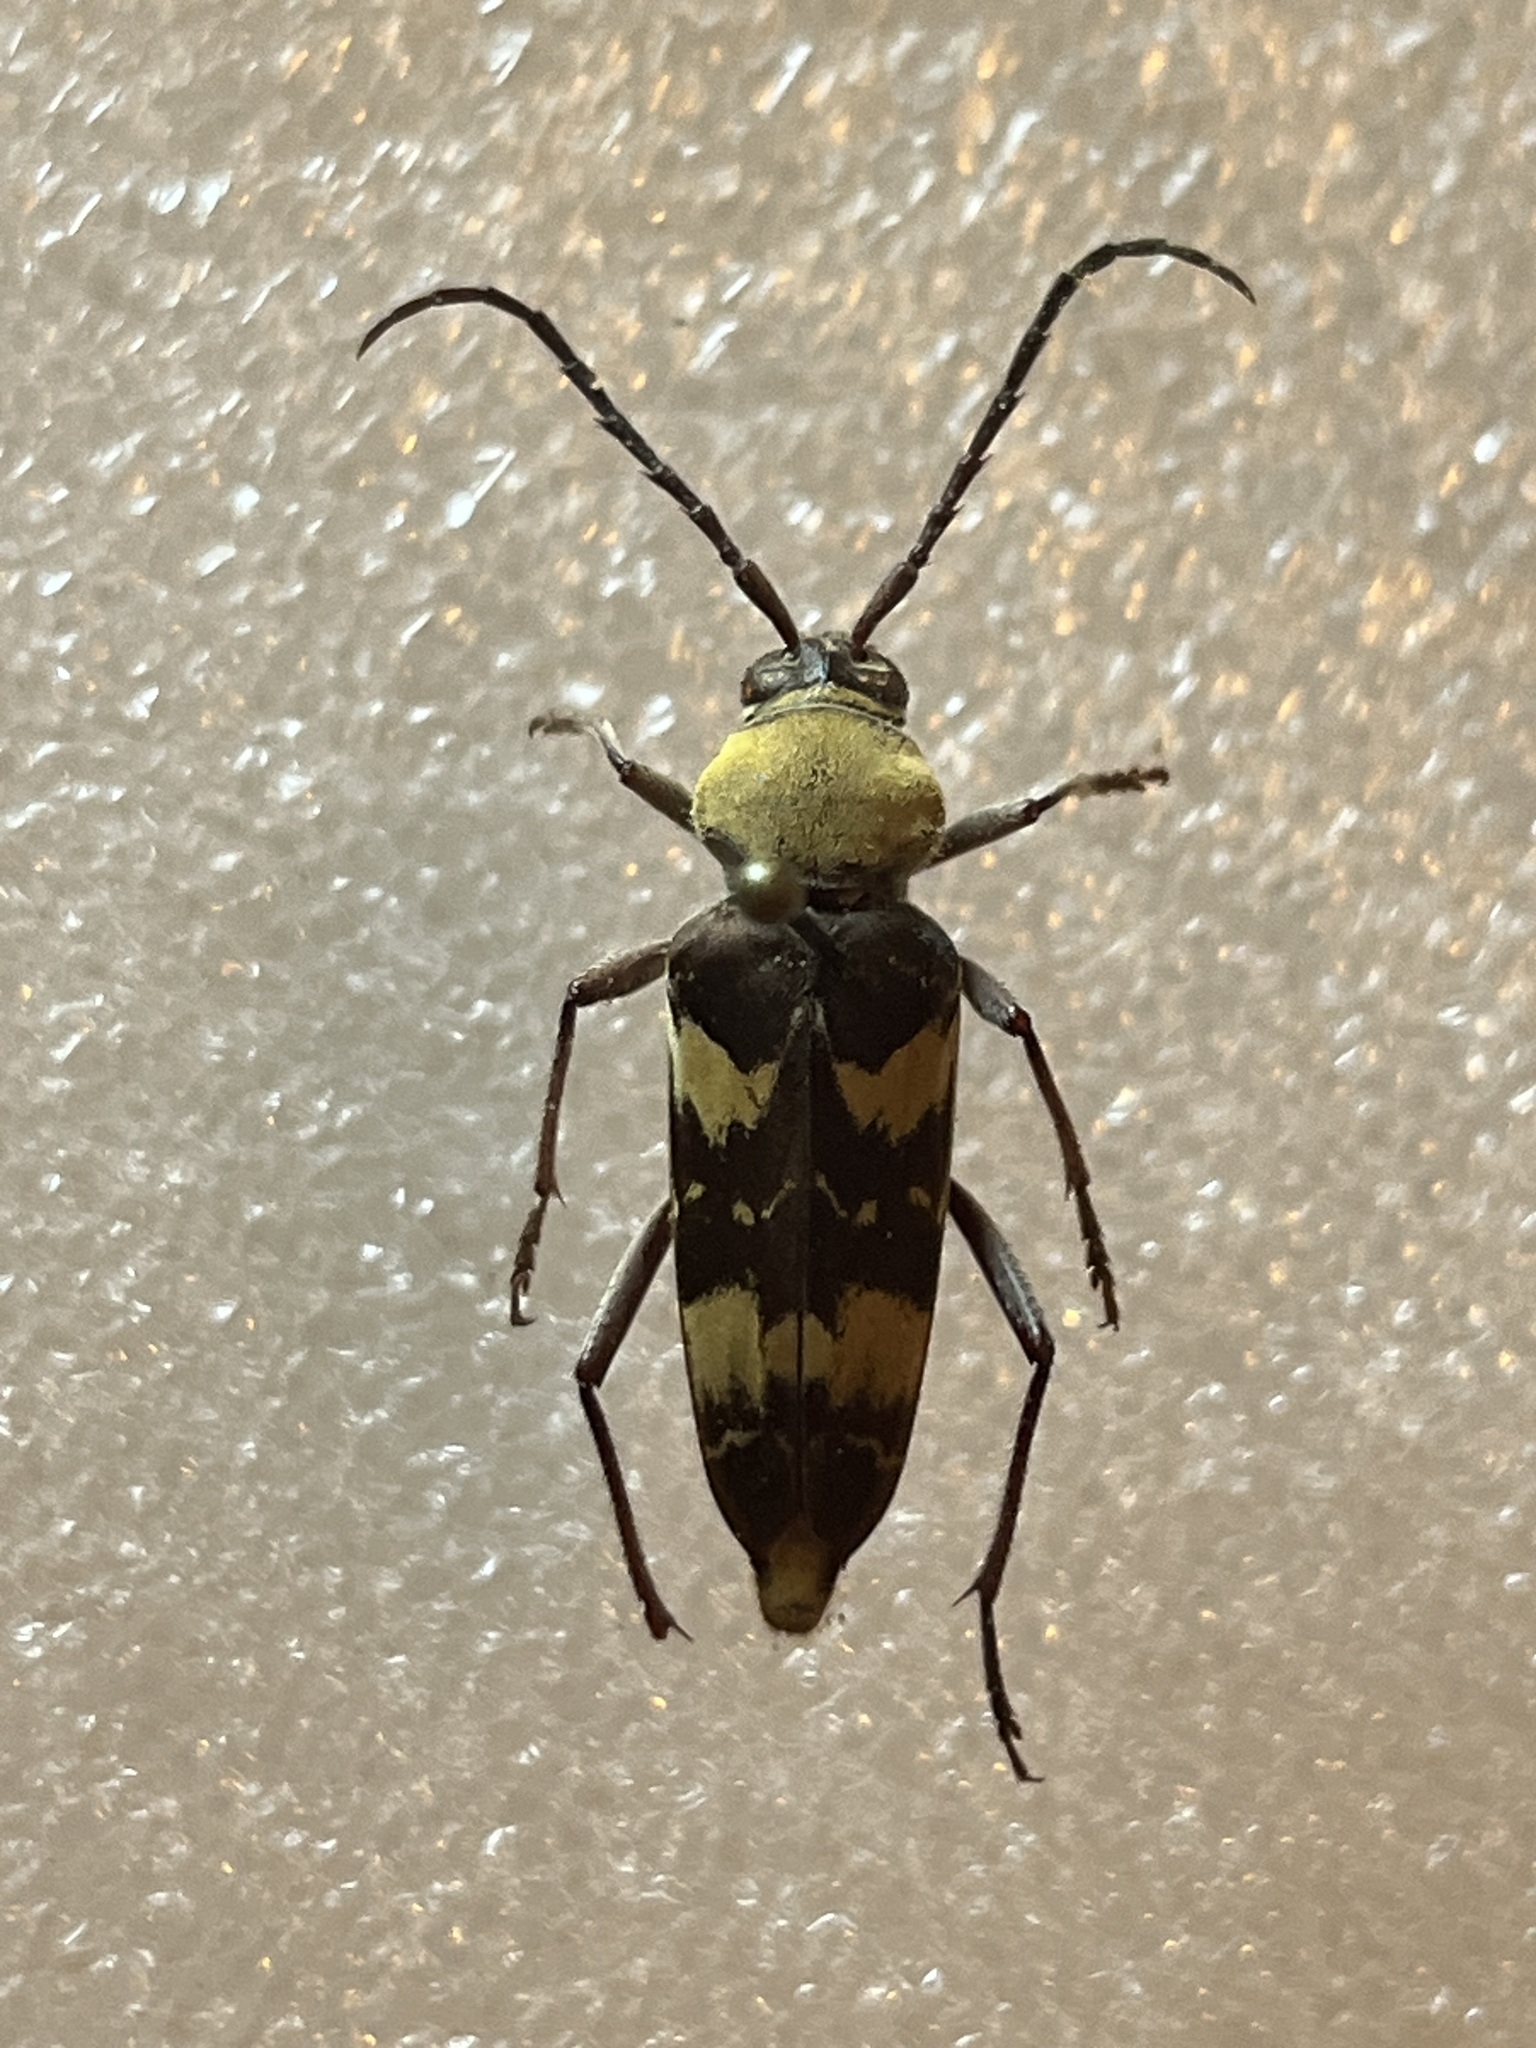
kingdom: Animalia
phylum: Arthropoda
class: Insecta
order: Coleoptera
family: Cerambycidae
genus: Megacyllene
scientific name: Megacyllene antennata
